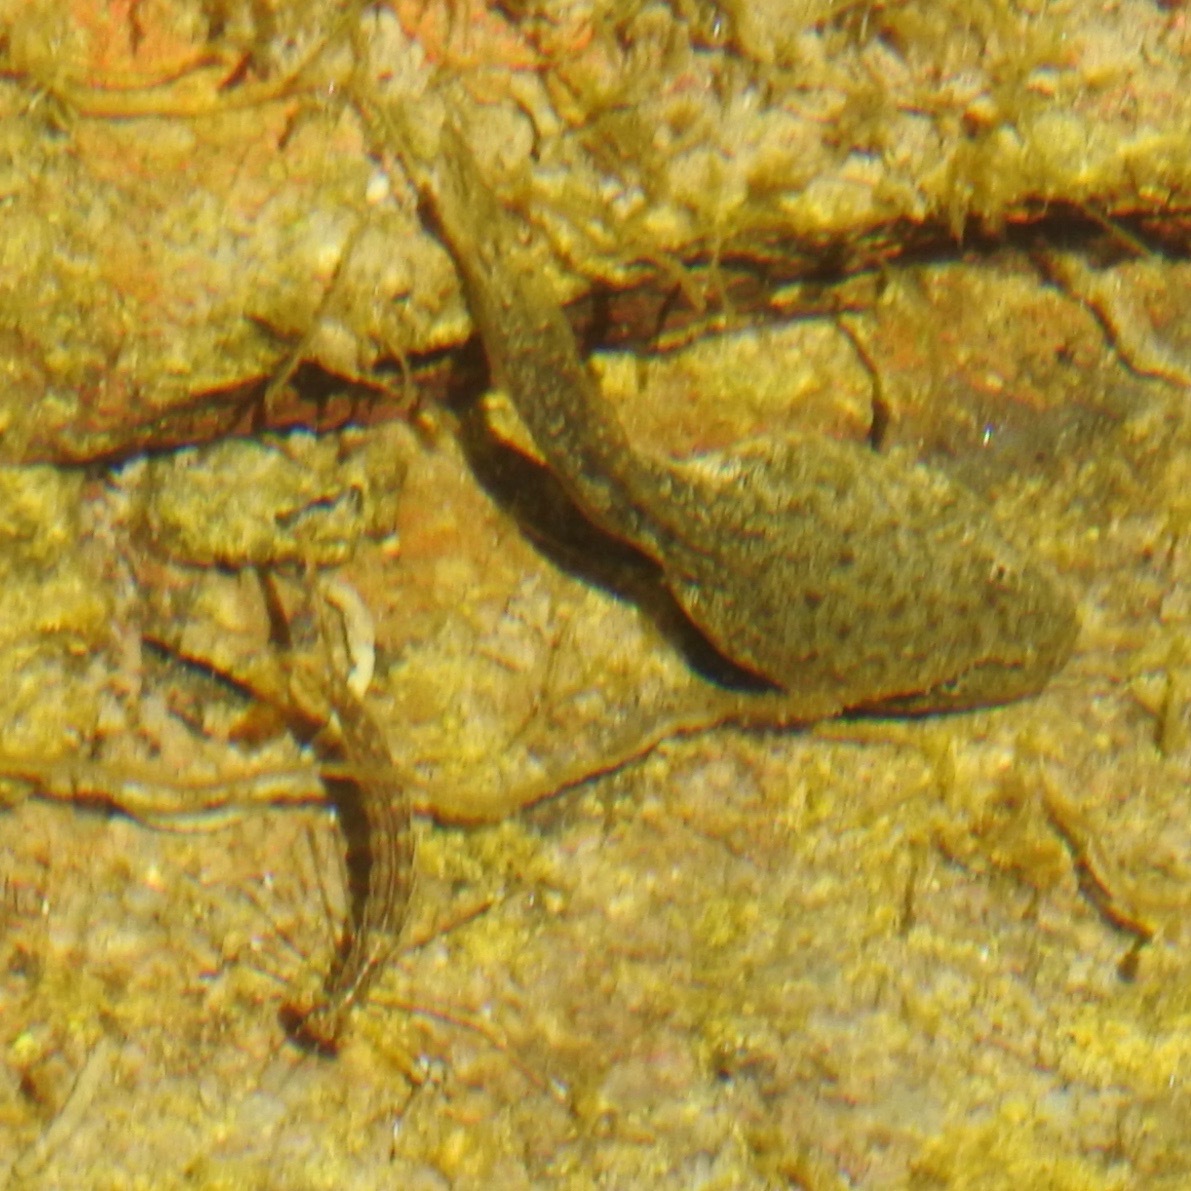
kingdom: Animalia
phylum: Chordata
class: Amphibia
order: Anura
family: Ranidae
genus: Rana
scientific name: Rana boylii
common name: Foothill yellow-legged frog
